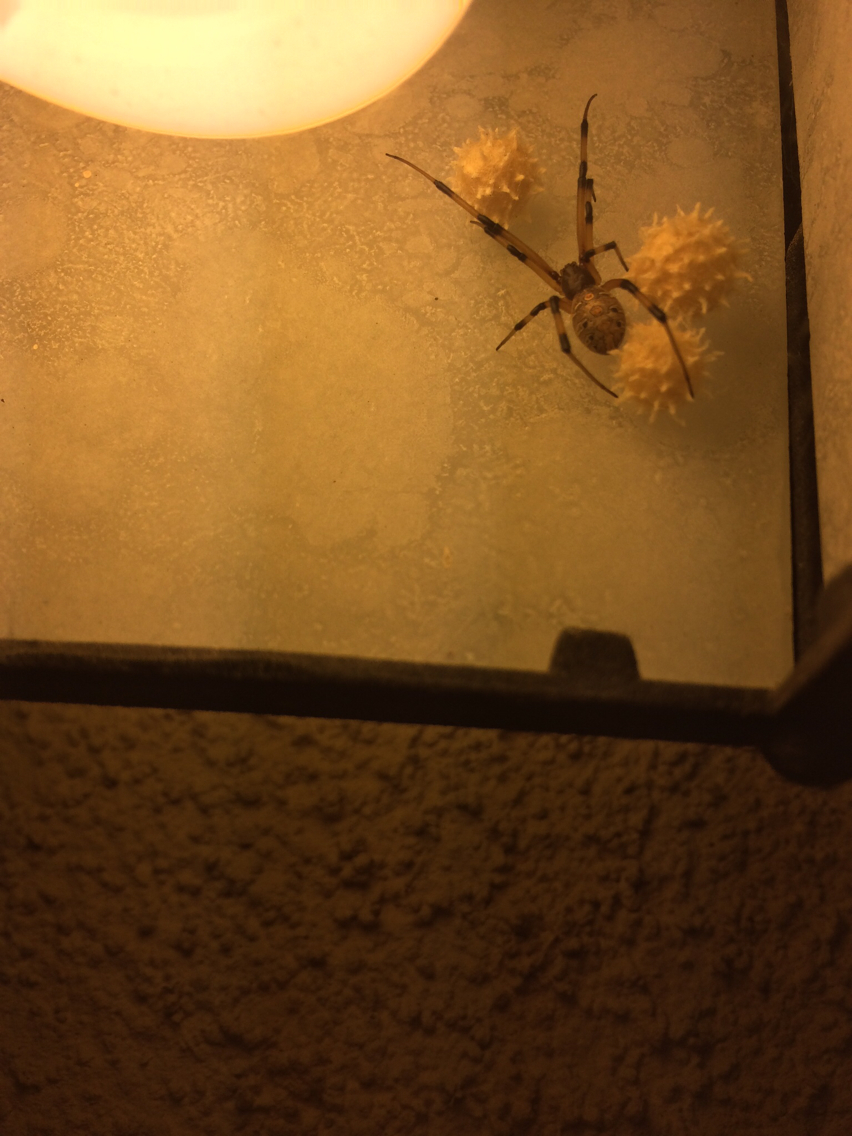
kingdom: Animalia
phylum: Arthropoda
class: Arachnida
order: Araneae
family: Theridiidae
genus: Latrodectus
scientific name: Latrodectus geometricus
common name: Brown widow spider
